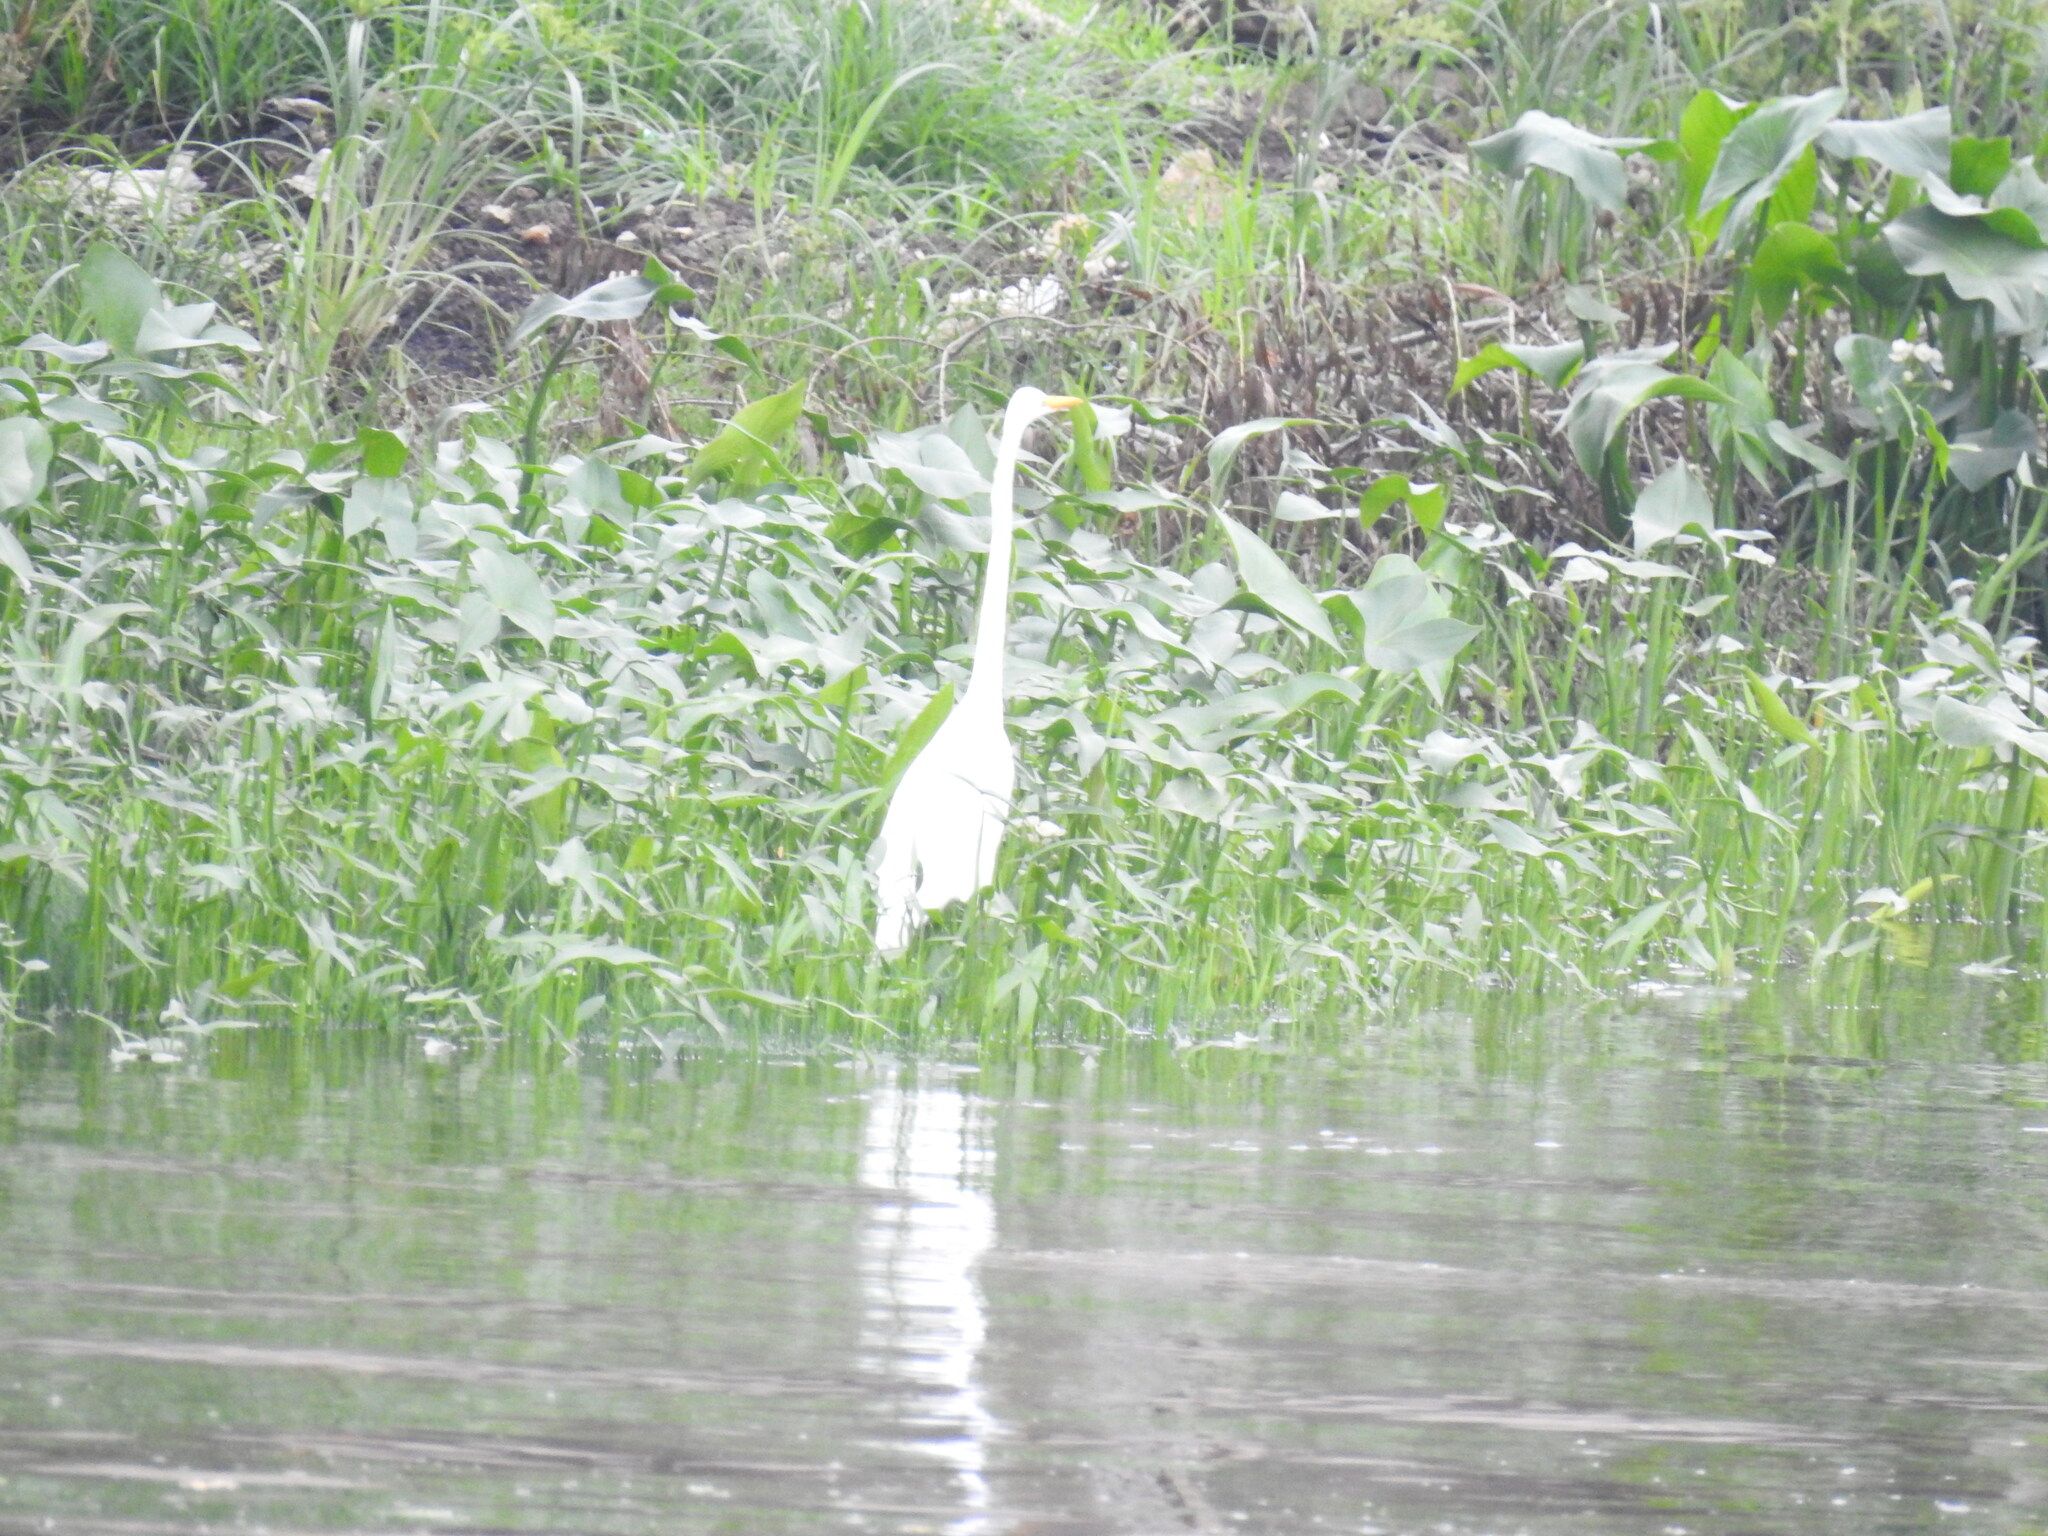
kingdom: Animalia
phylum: Chordata
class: Aves
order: Pelecaniformes
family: Ardeidae
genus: Ardea
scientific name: Ardea alba
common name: Great egret
